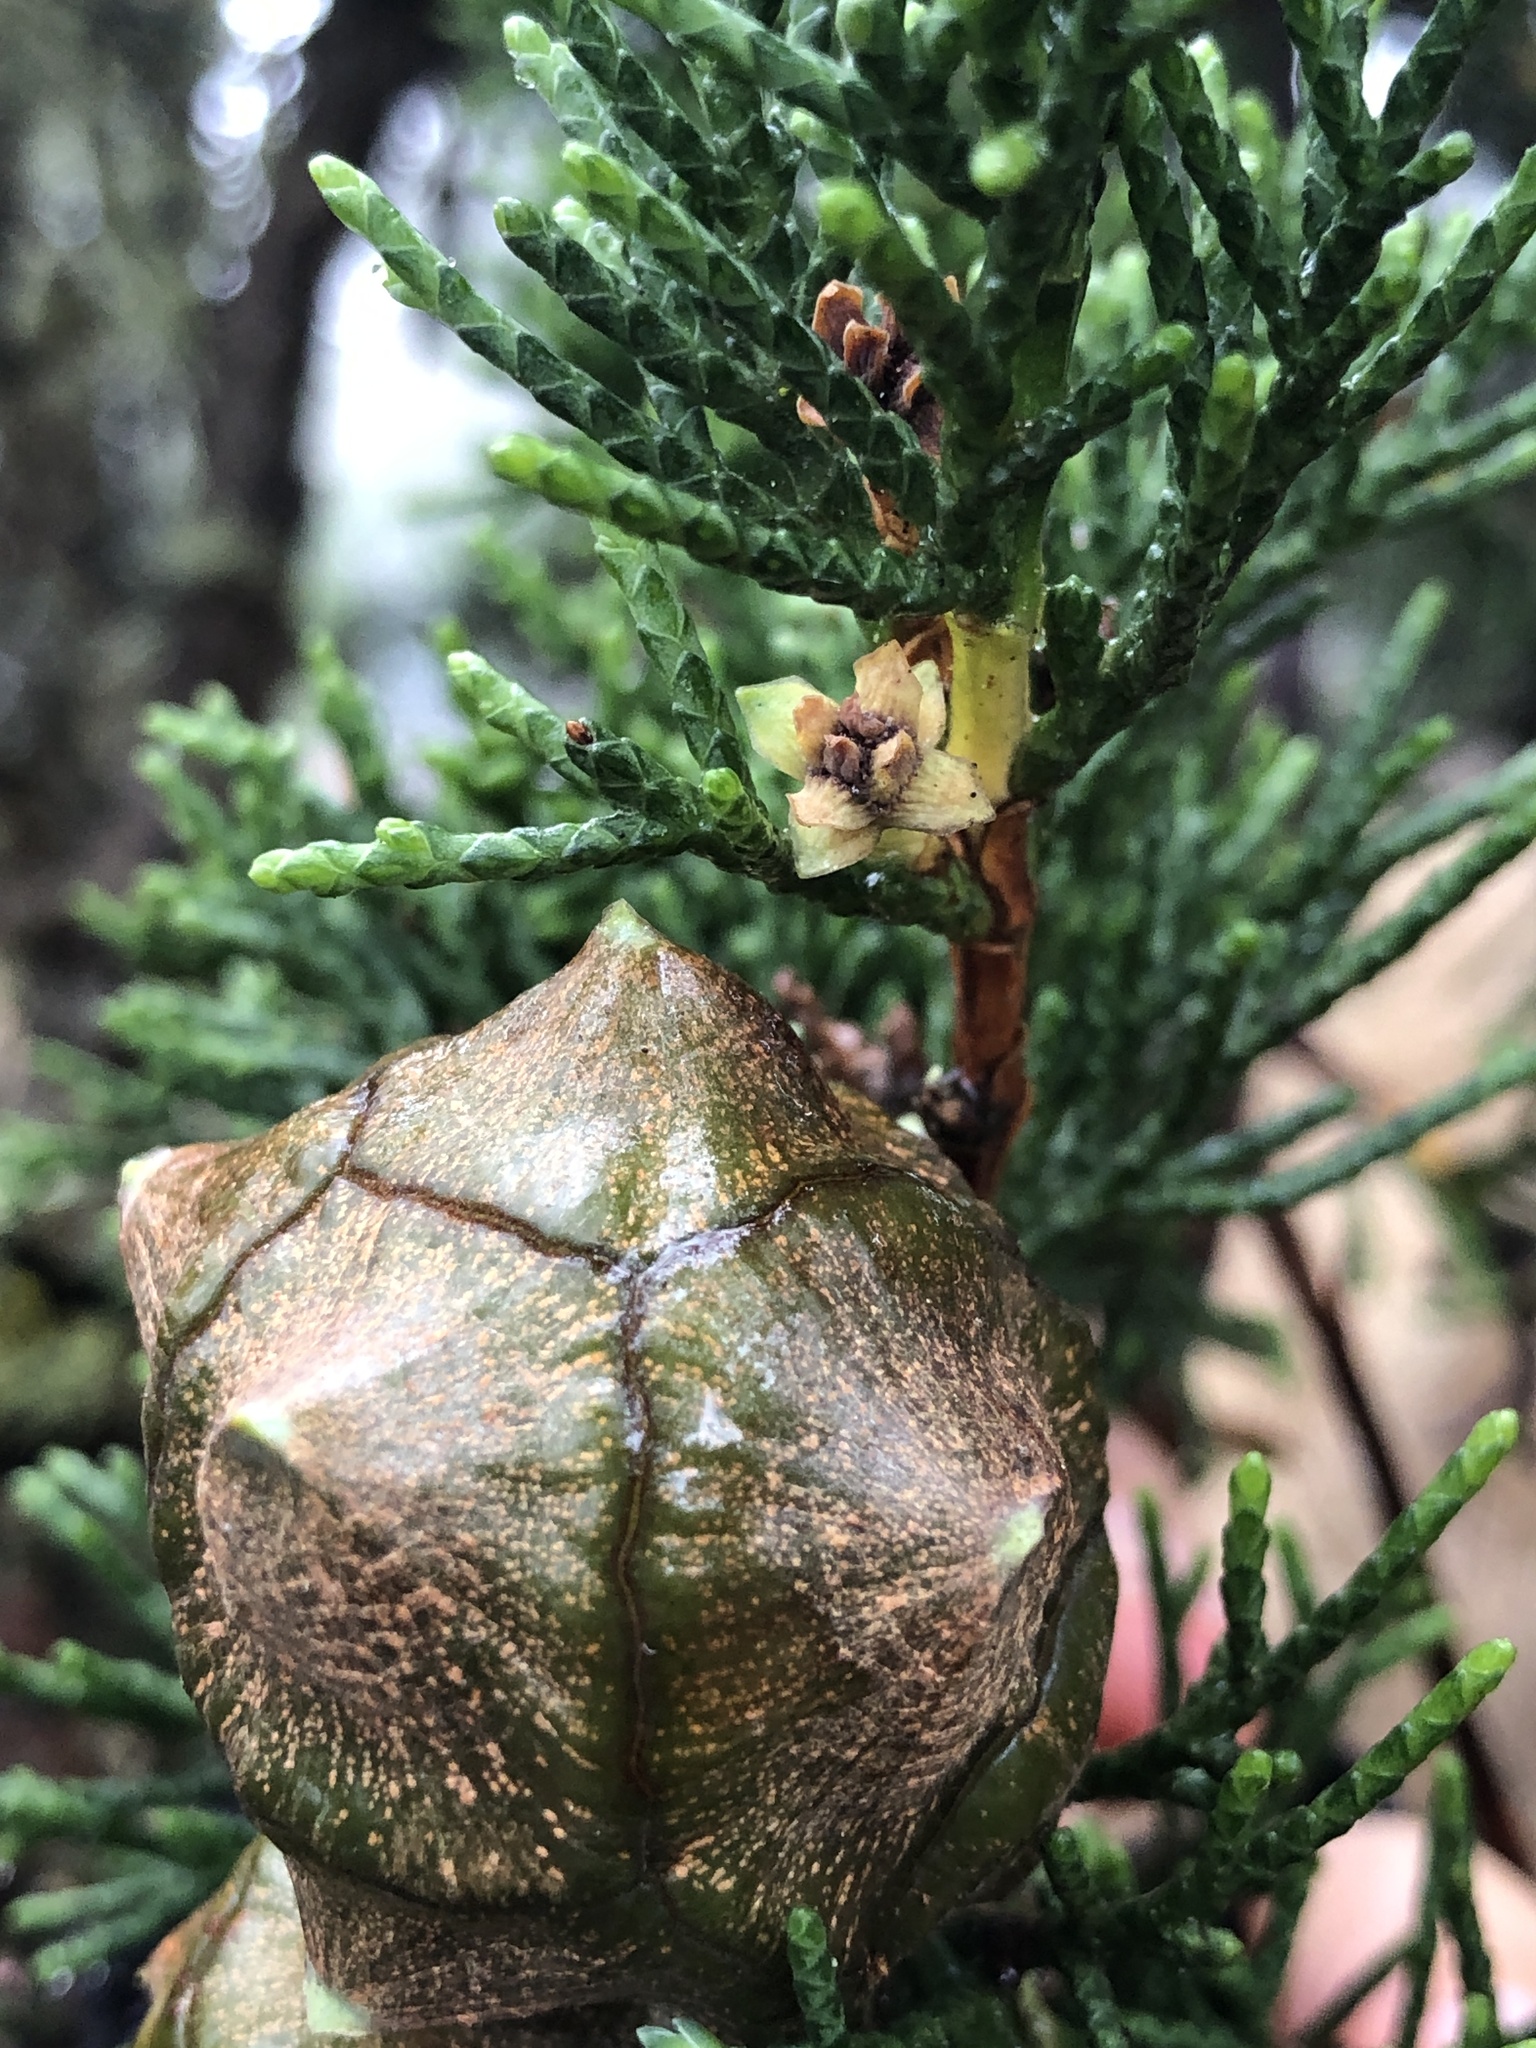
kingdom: Animalia
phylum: Arthropoda
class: Insecta
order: Diptera
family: Cecidomyiidae
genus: Chamaediplosis
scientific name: Chamaediplosis nootkatensis
